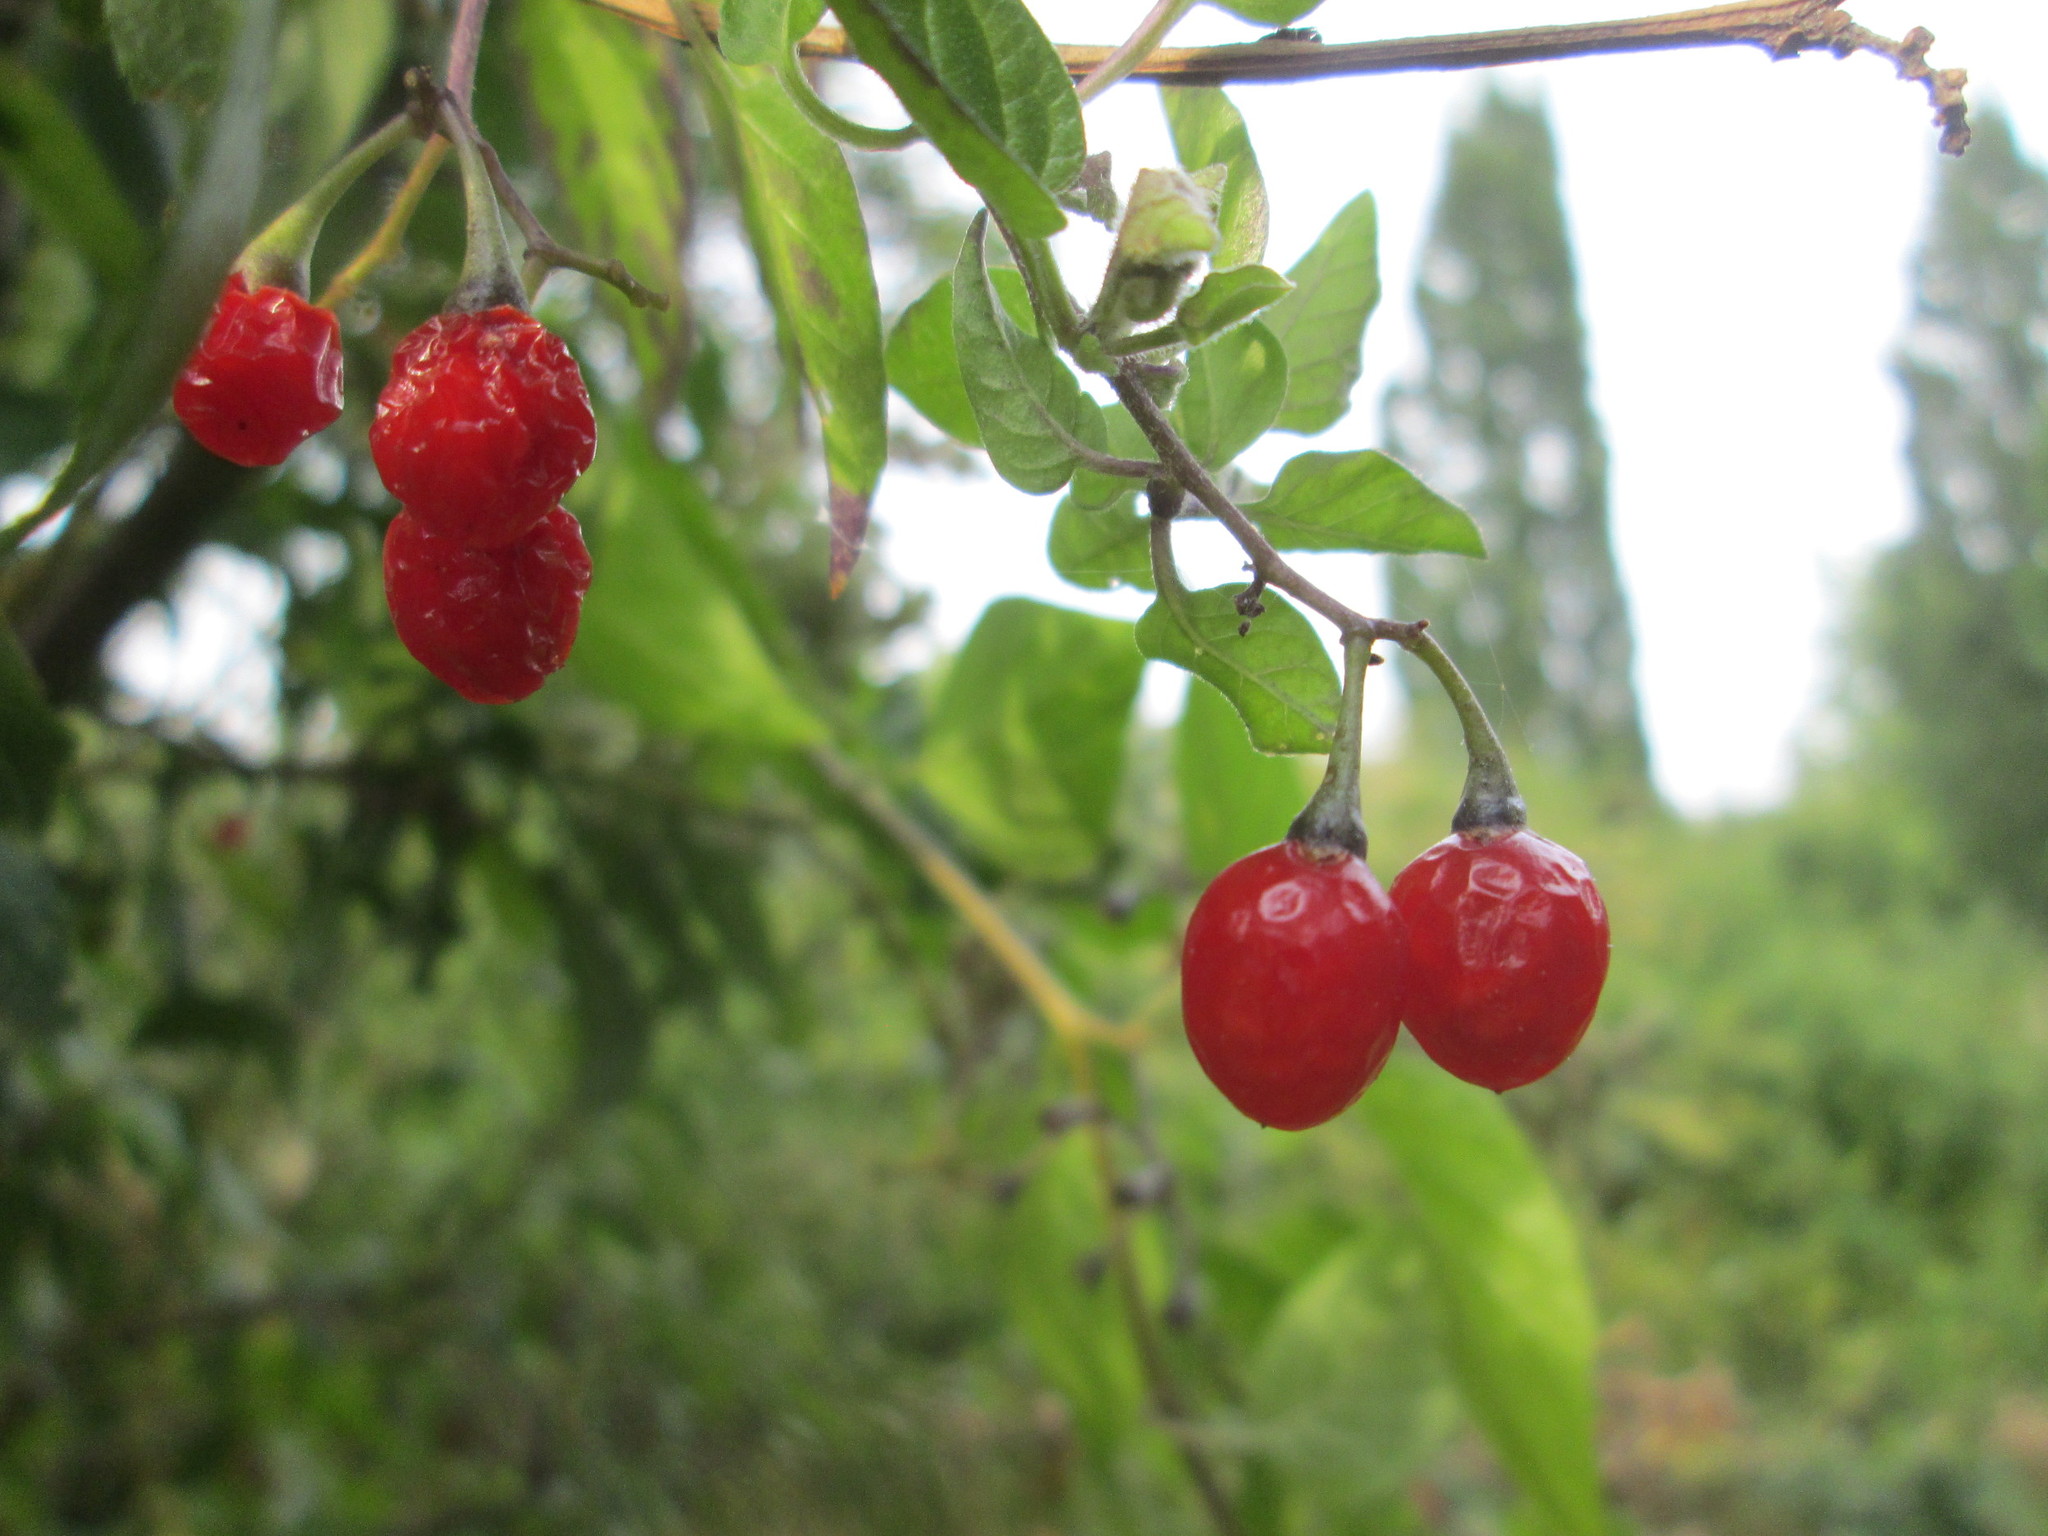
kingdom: Plantae
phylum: Tracheophyta
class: Magnoliopsida
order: Solanales
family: Solanaceae
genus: Solanum
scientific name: Solanum dulcamara
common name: Climbing nightshade
